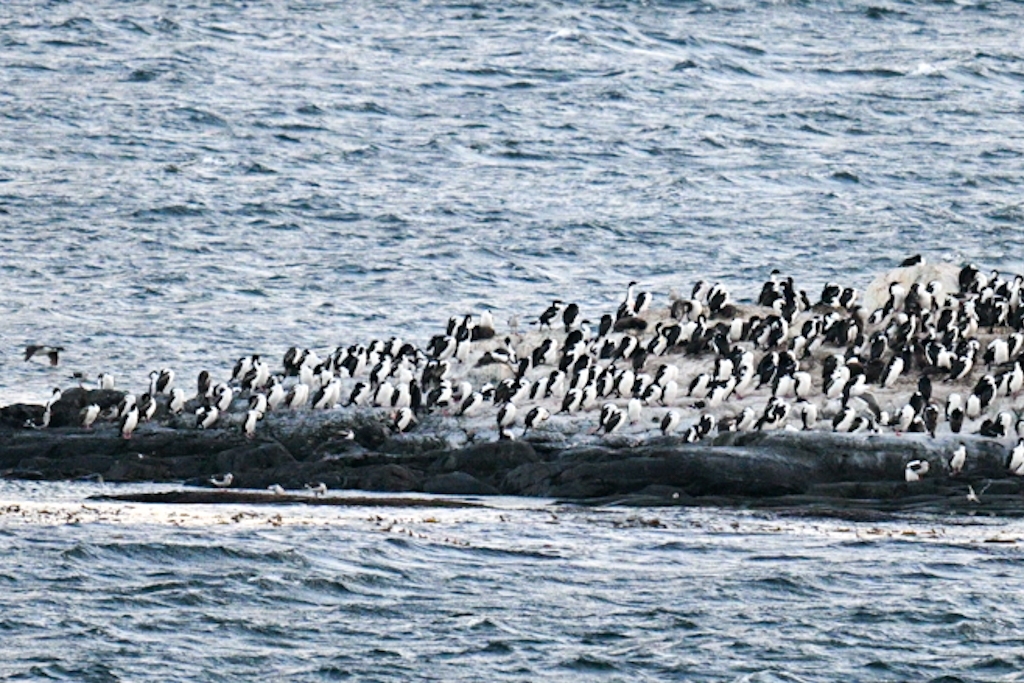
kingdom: Animalia
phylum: Chordata
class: Aves
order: Suliformes
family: Phalacrocoracidae
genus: Leucocarbo
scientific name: Leucocarbo atriceps
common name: Imperial shag
